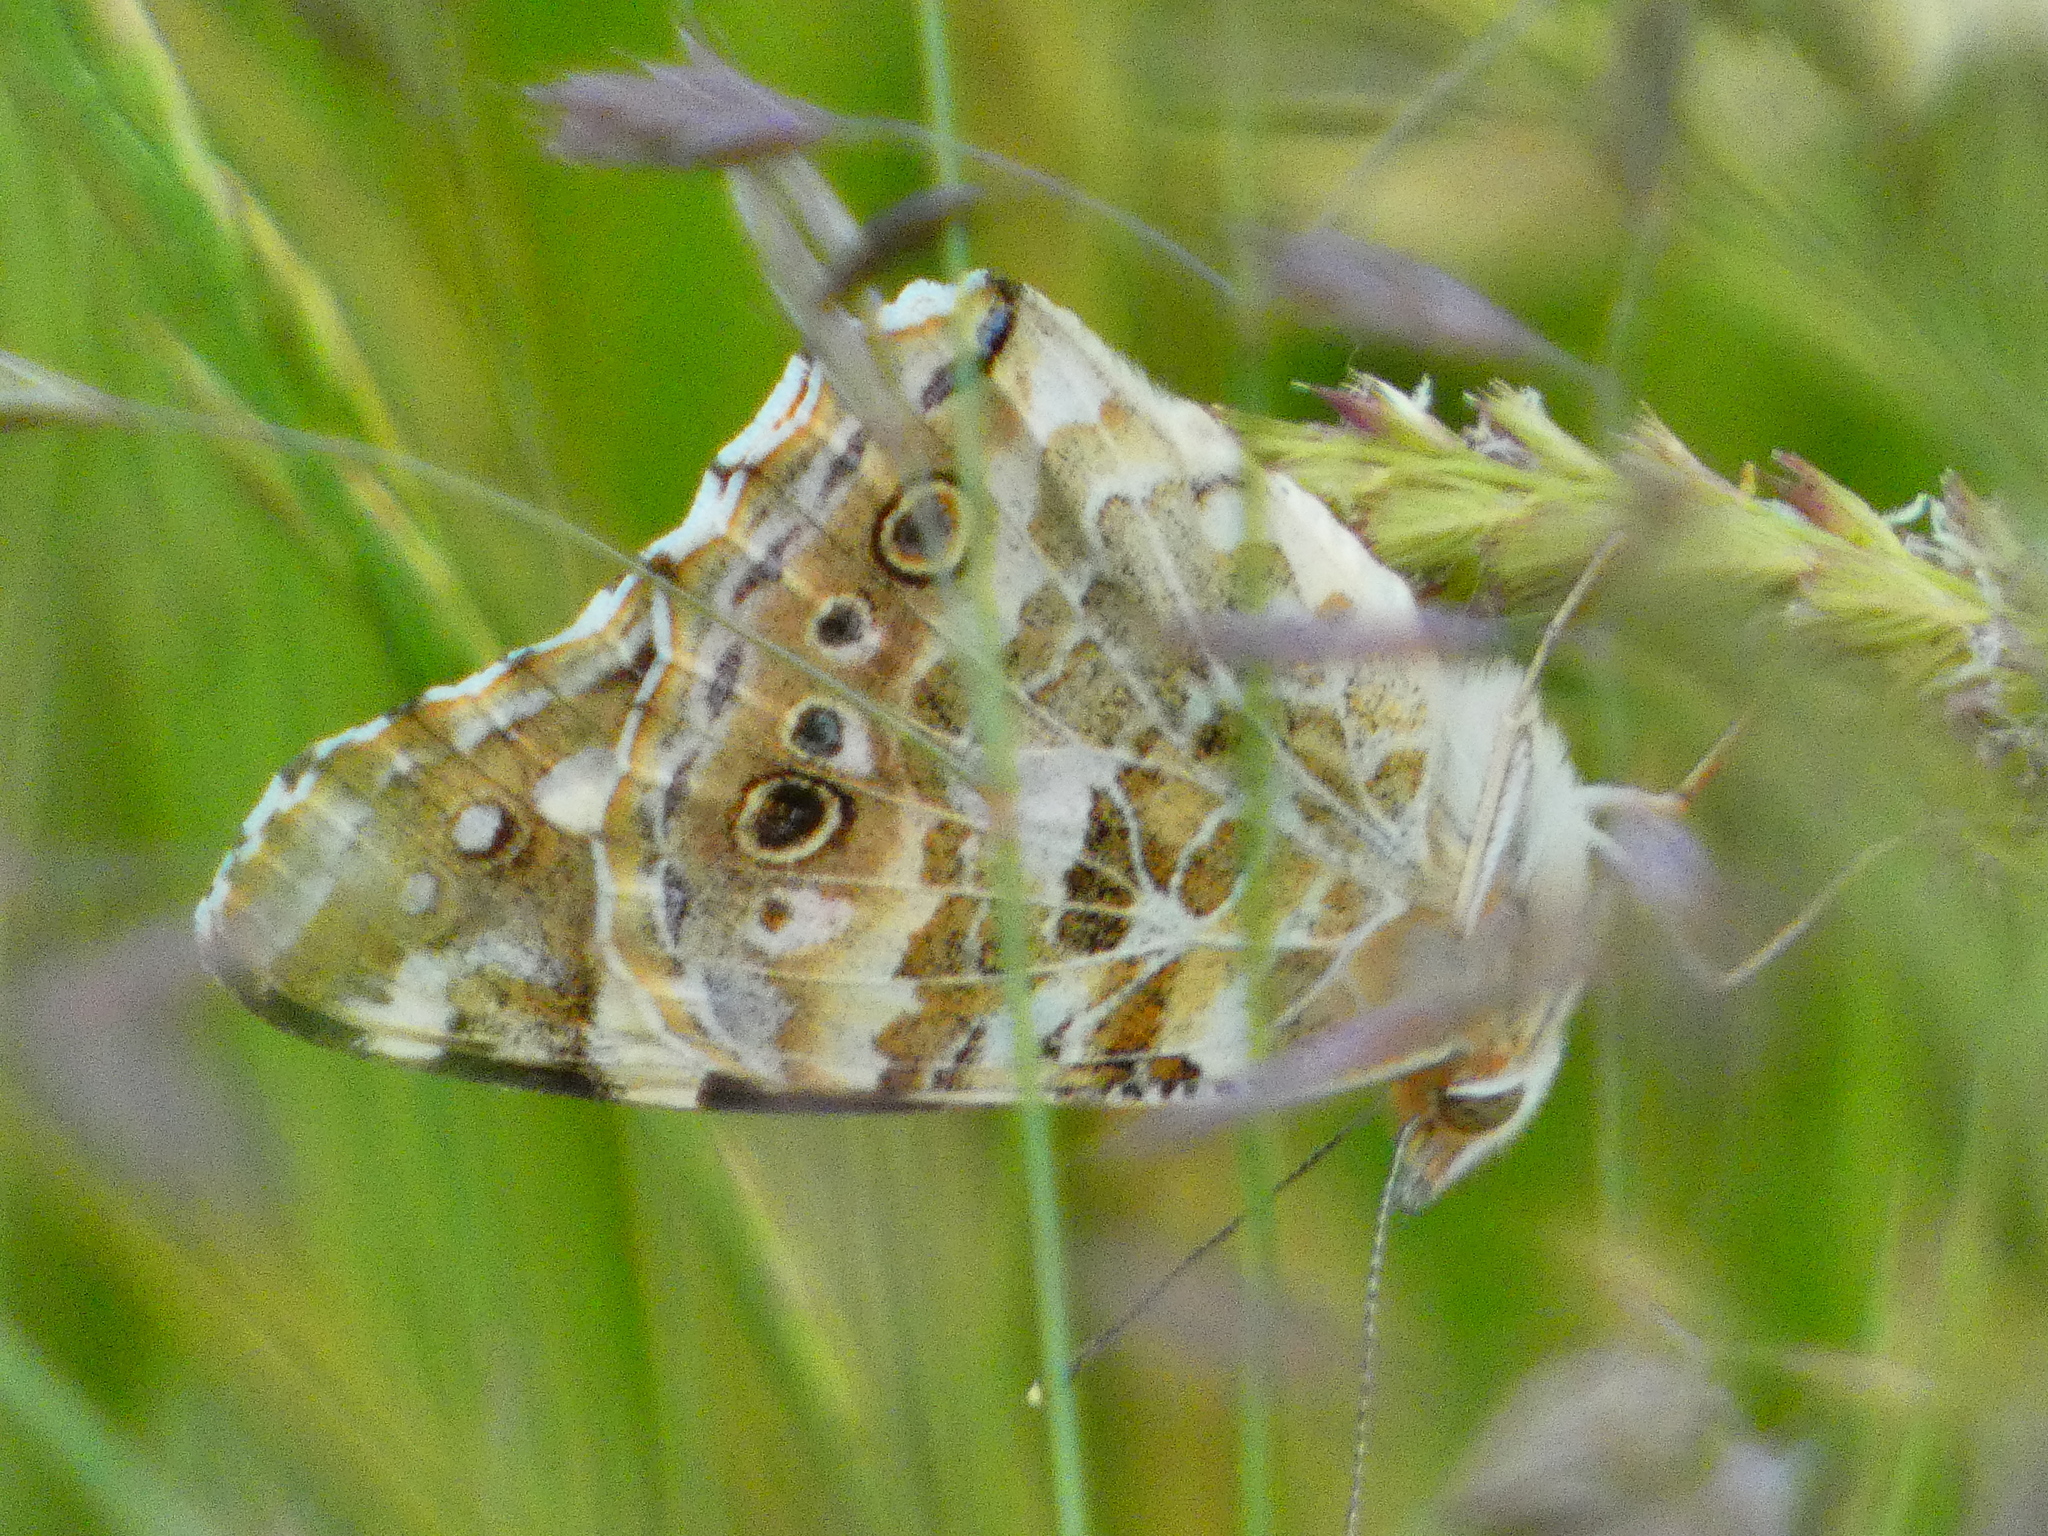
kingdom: Animalia
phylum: Arthropoda
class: Insecta
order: Lepidoptera
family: Nymphalidae
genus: Vanessa
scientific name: Vanessa cardui
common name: Painted lady
